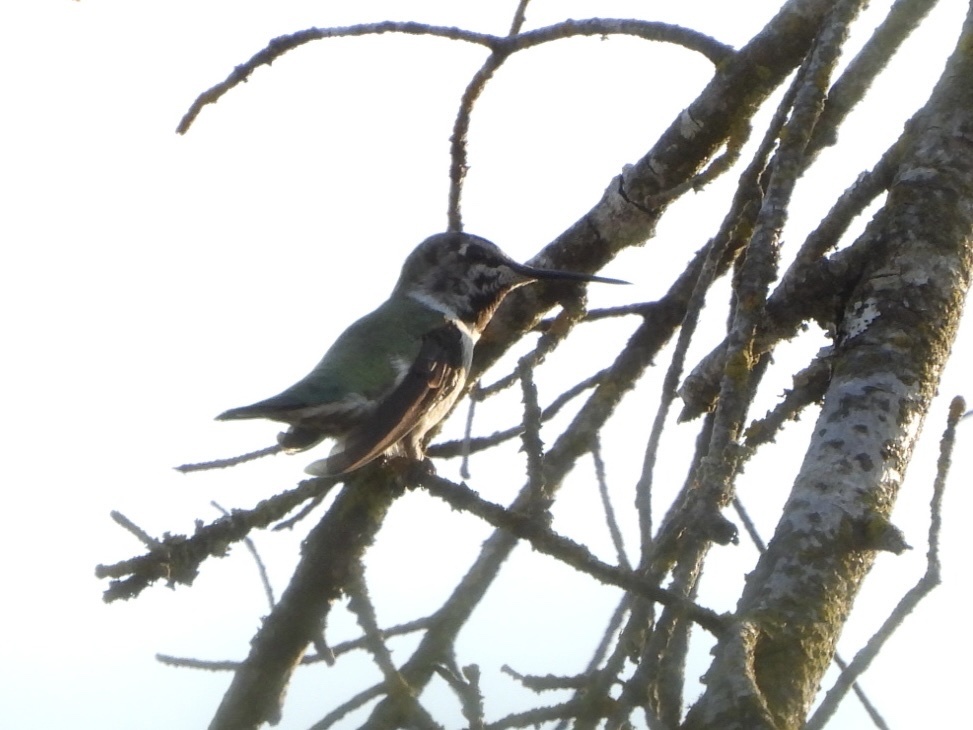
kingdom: Animalia
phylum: Chordata
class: Aves
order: Apodiformes
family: Trochilidae
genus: Calypte
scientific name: Calypte anna
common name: Anna's hummingbird
